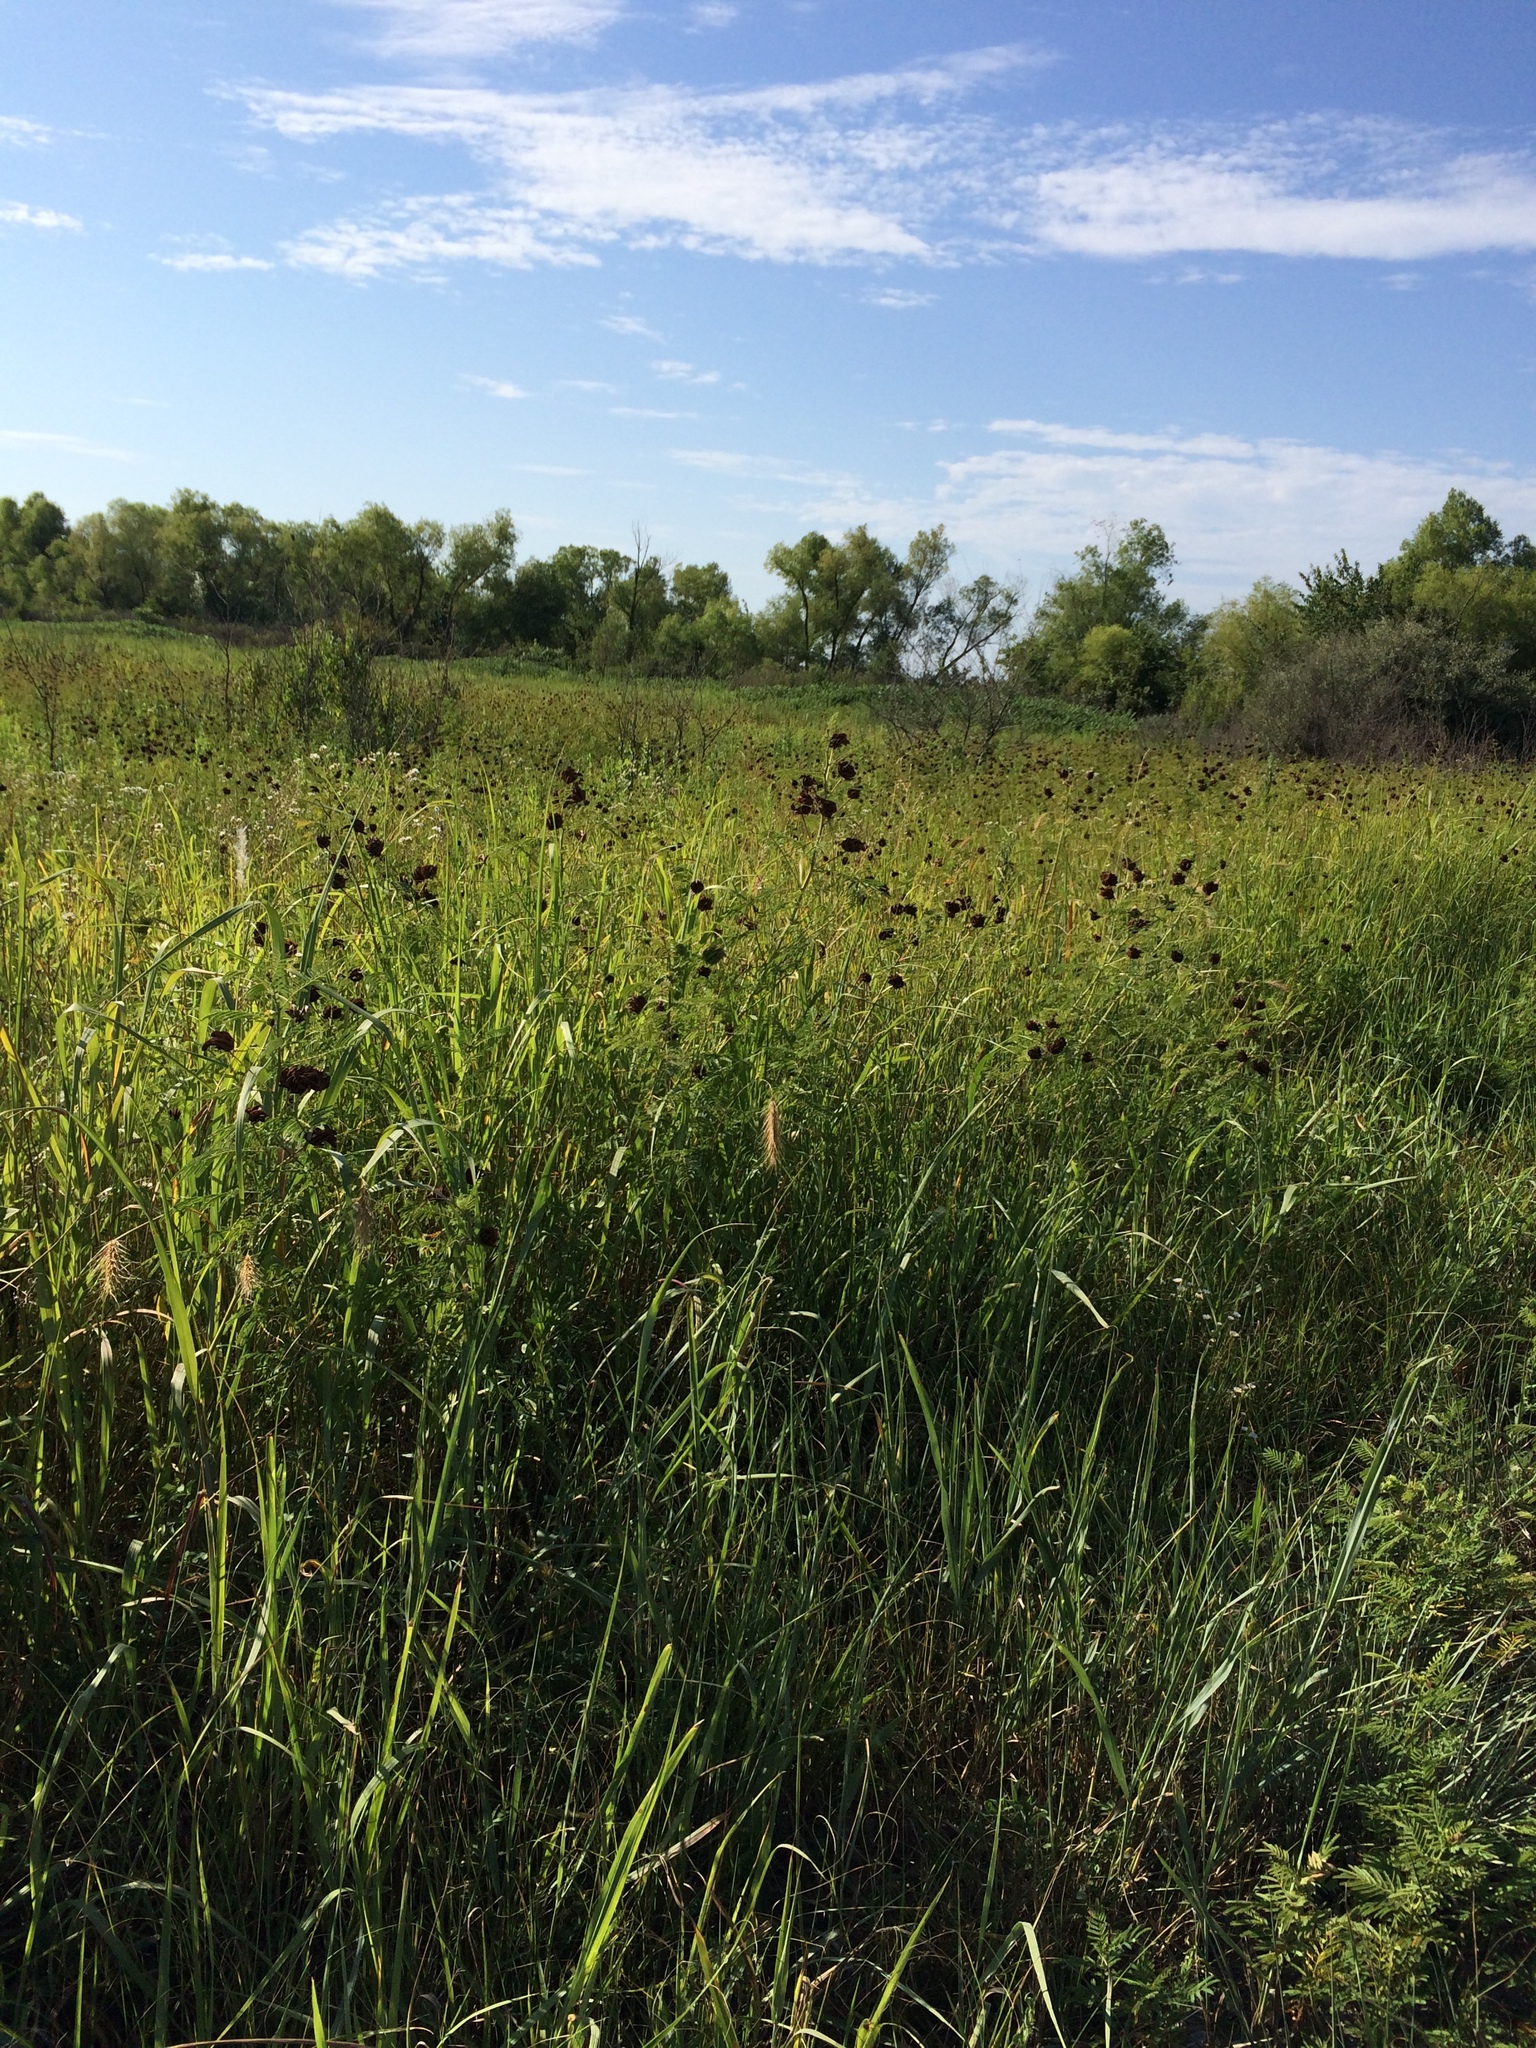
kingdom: Plantae
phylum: Tracheophyta
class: Magnoliopsida
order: Fabales
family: Fabaceae
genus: Desmanthus
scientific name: Desmanthus illinoensis
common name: Illinois bundle-flower
